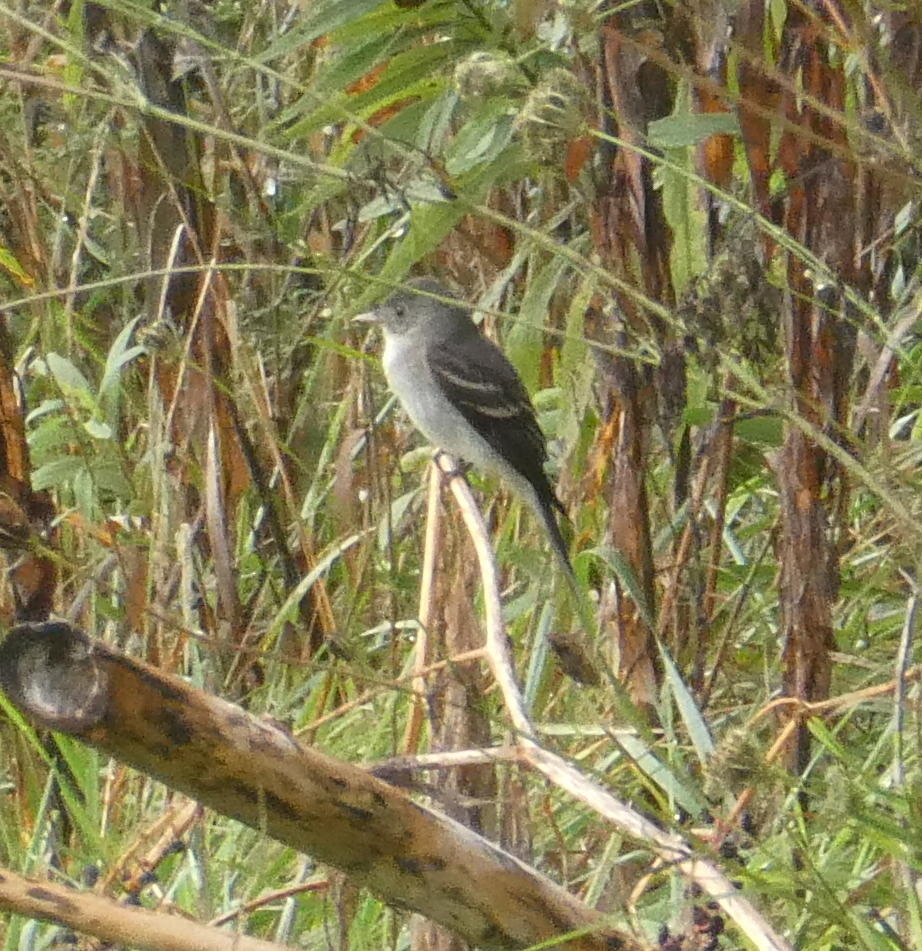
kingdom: Animalia
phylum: Chordata
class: Aves
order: Passeriformes
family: Tyrannidae
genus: Contopus
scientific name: Contopus virens
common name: Eastern wood-pewee
